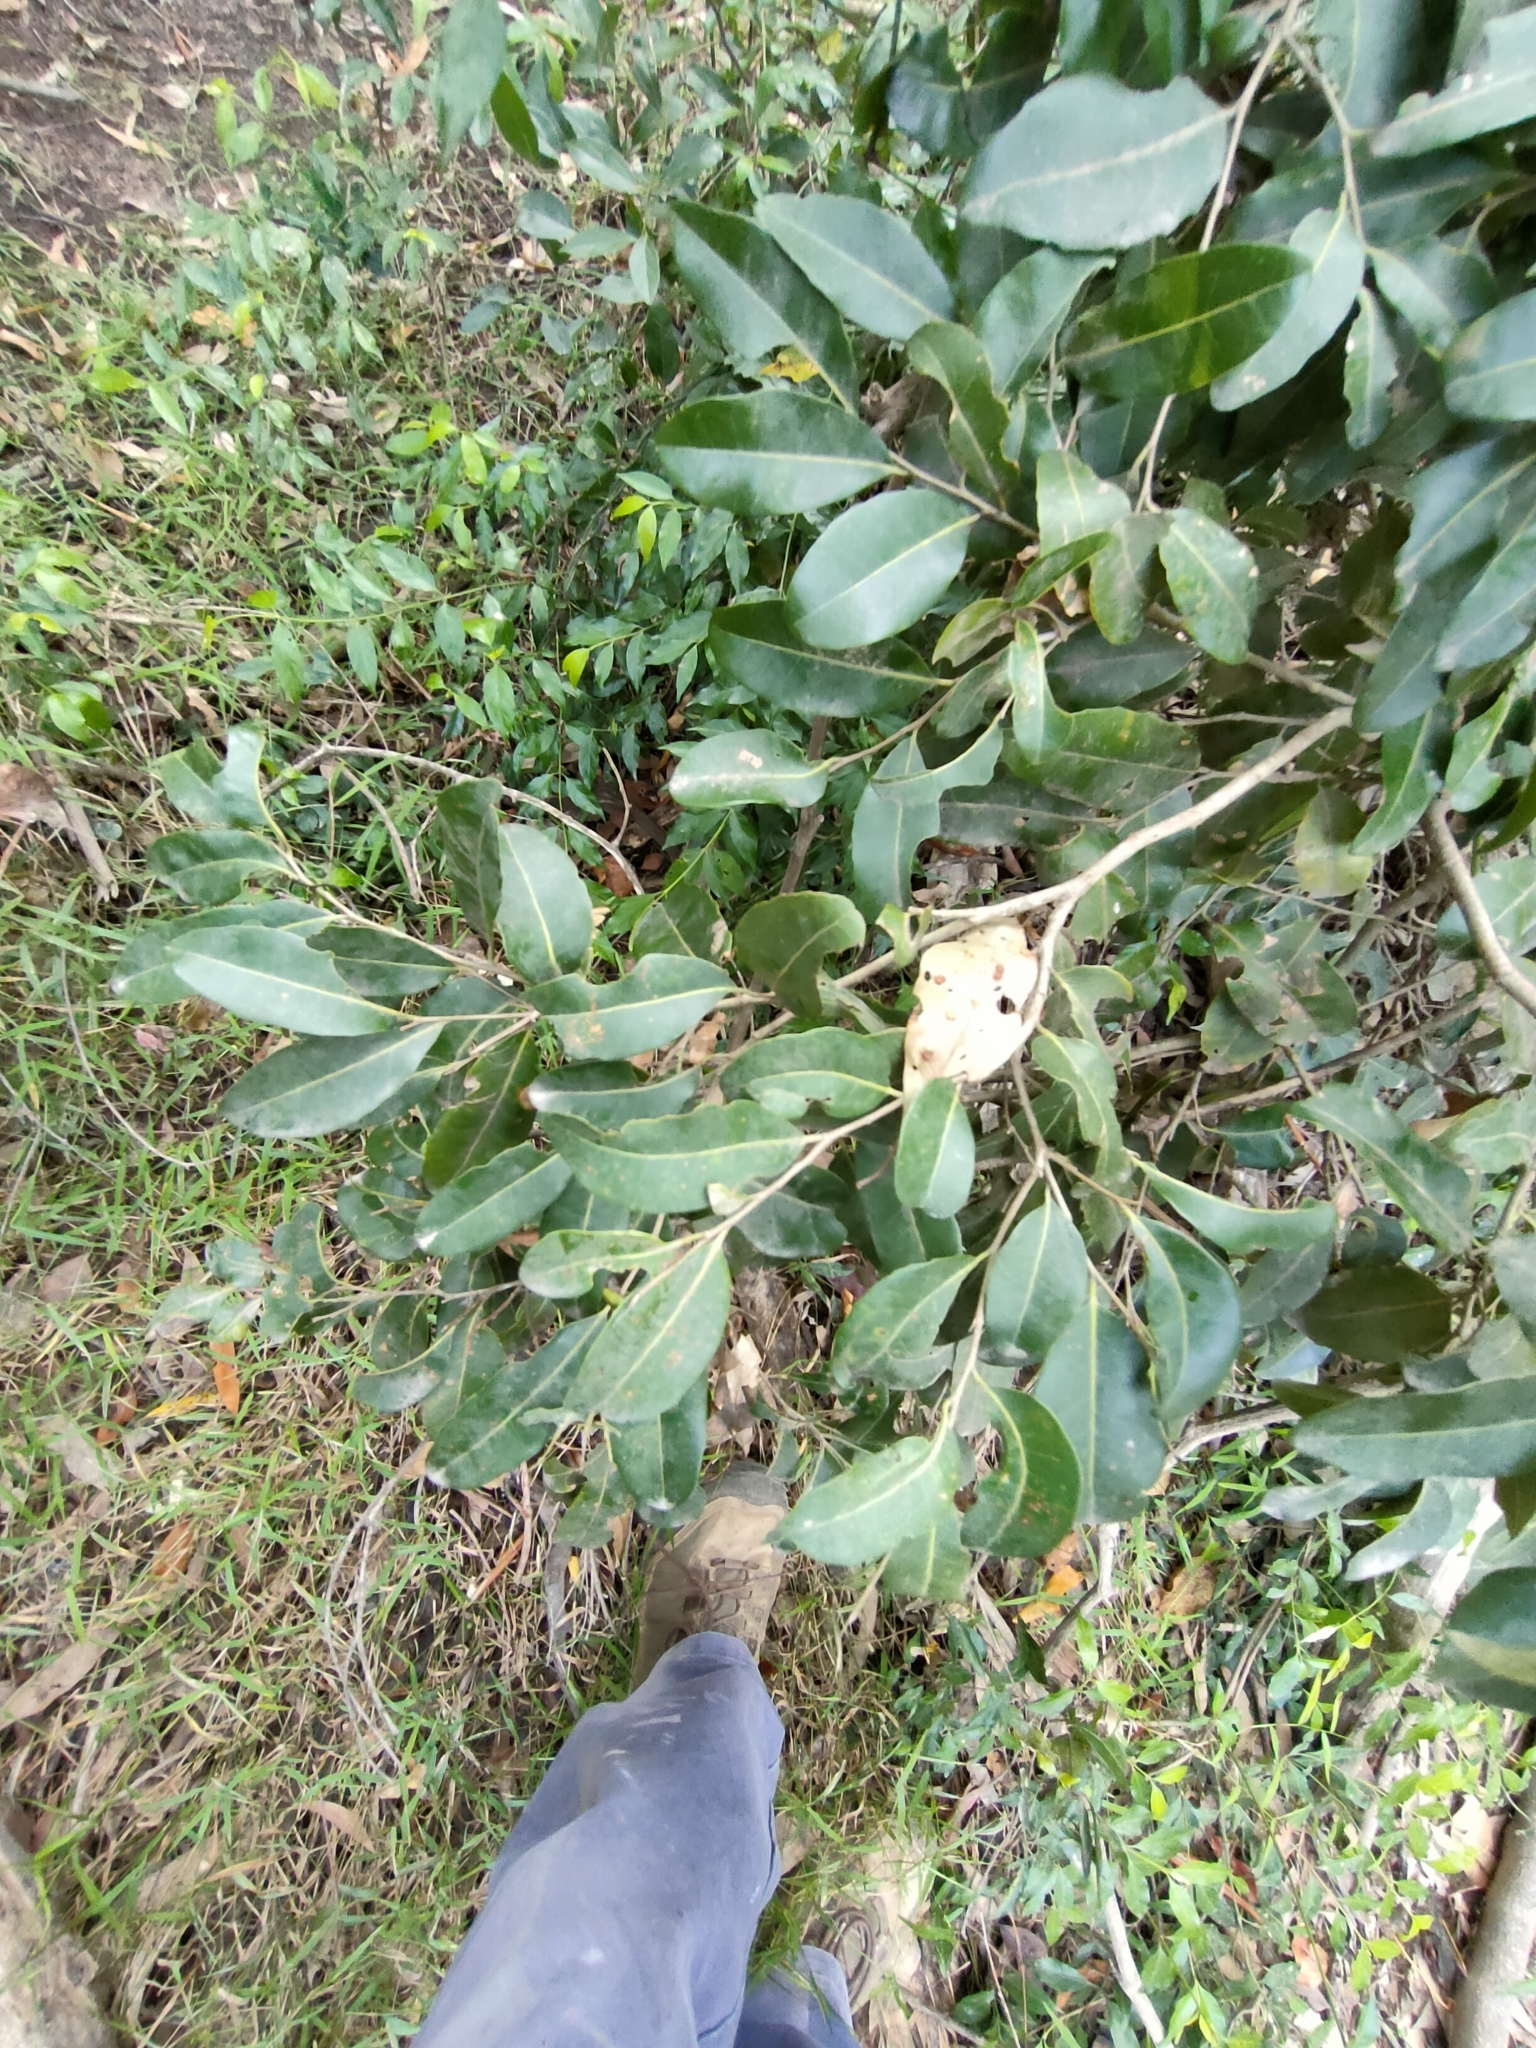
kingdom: Plantae
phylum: Tracheophyta
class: Magnoliopsida
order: Malpighiales
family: Putranjivaceae
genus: Drypetes
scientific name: Drypetes deplanchei
